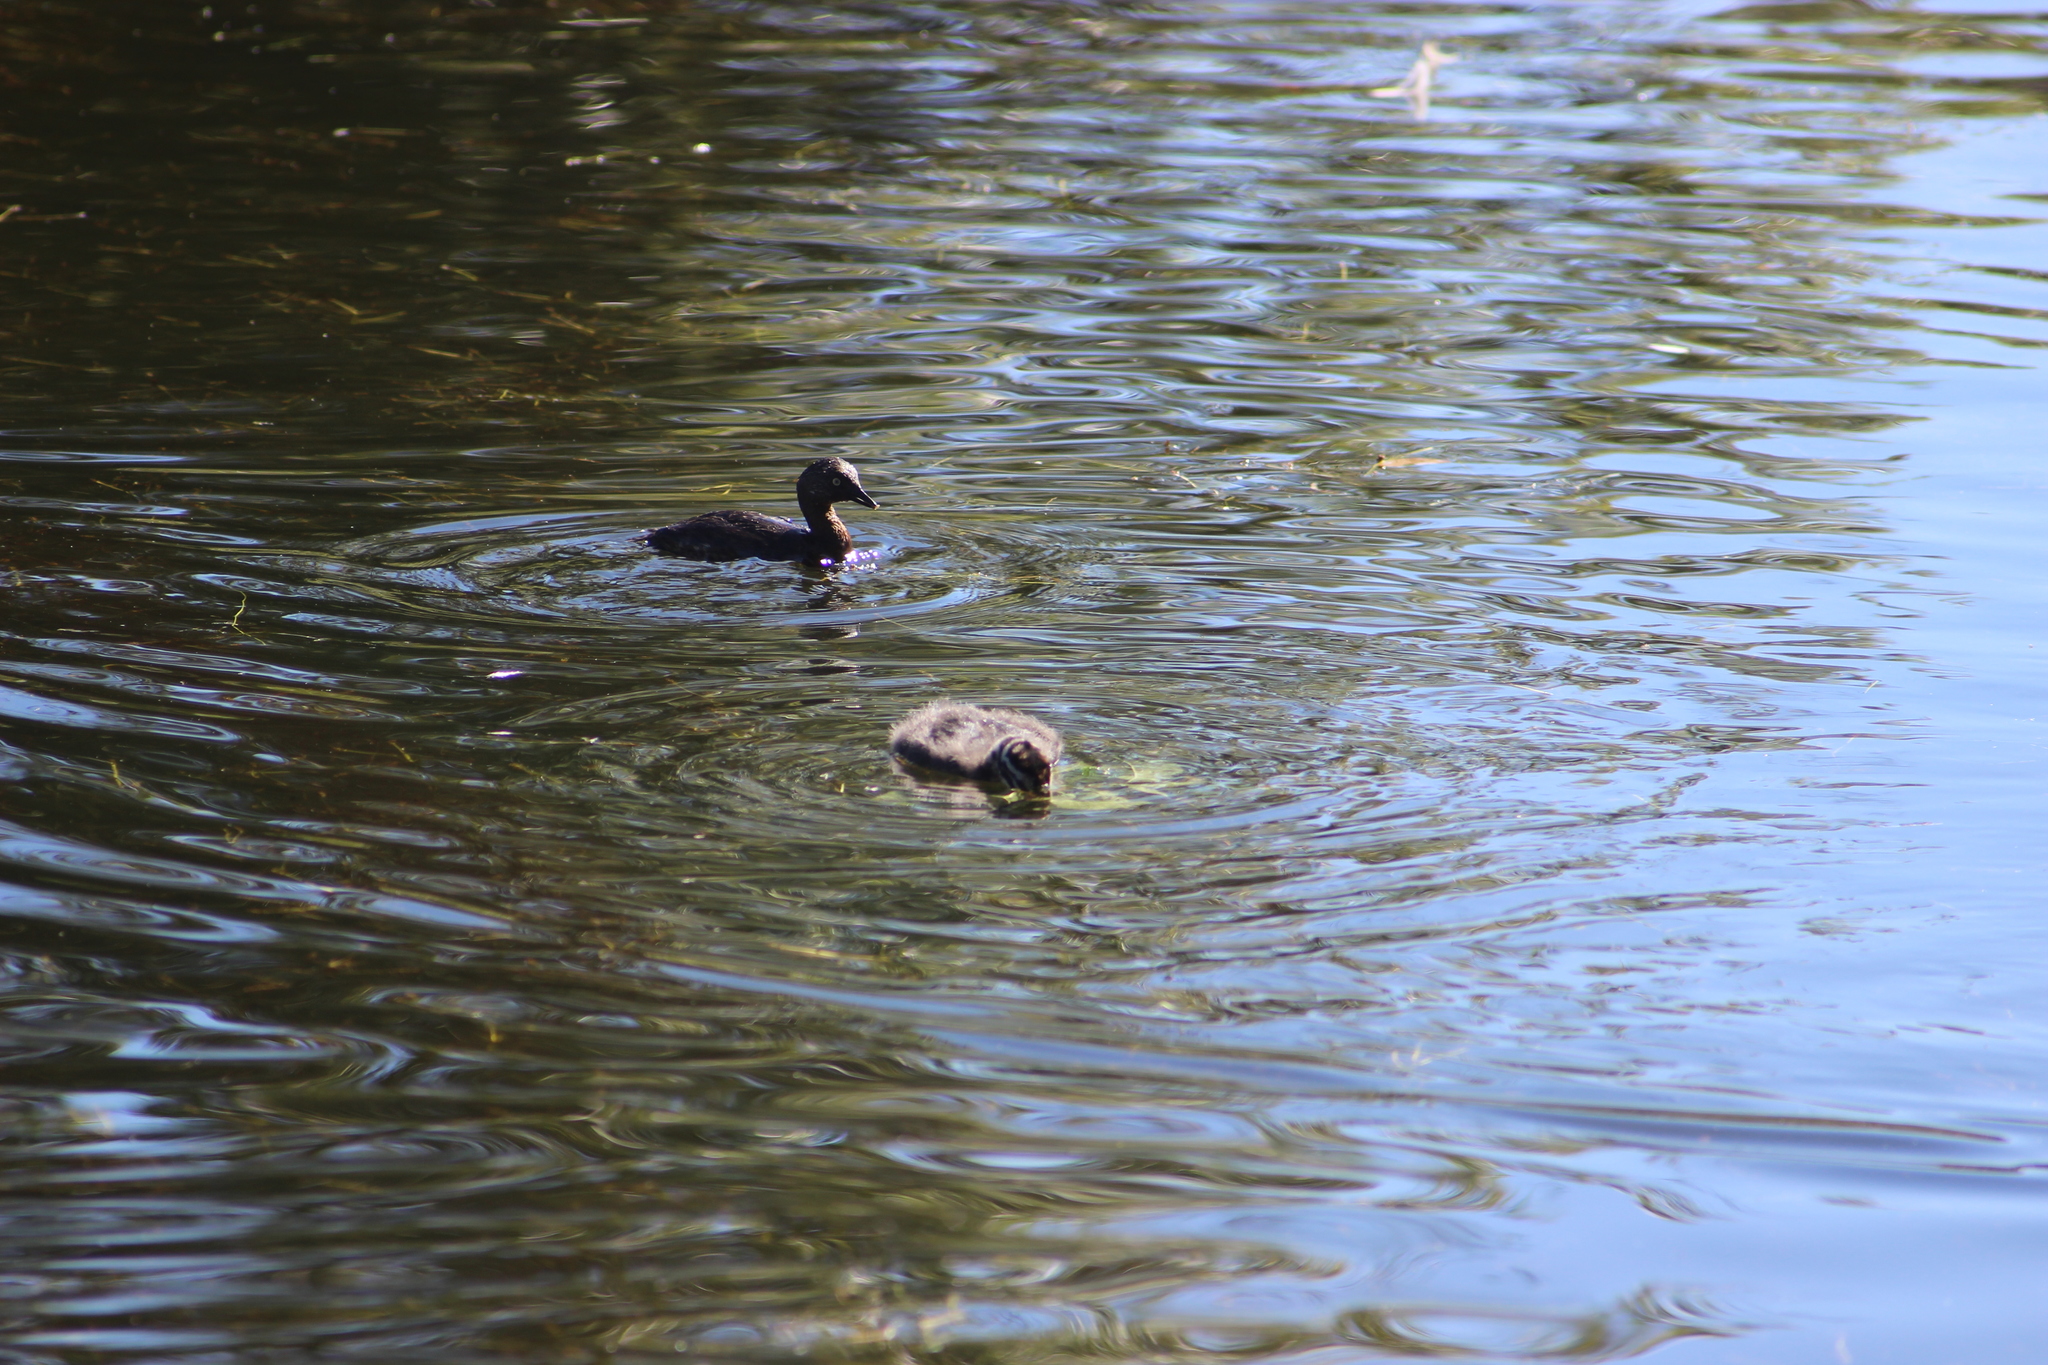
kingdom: Animalia
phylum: Chordata
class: Aves
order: Podicipediformes
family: Podicipedidae
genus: Poliocephalus
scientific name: Poliocephalus rufopectus
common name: New zealand grebe
